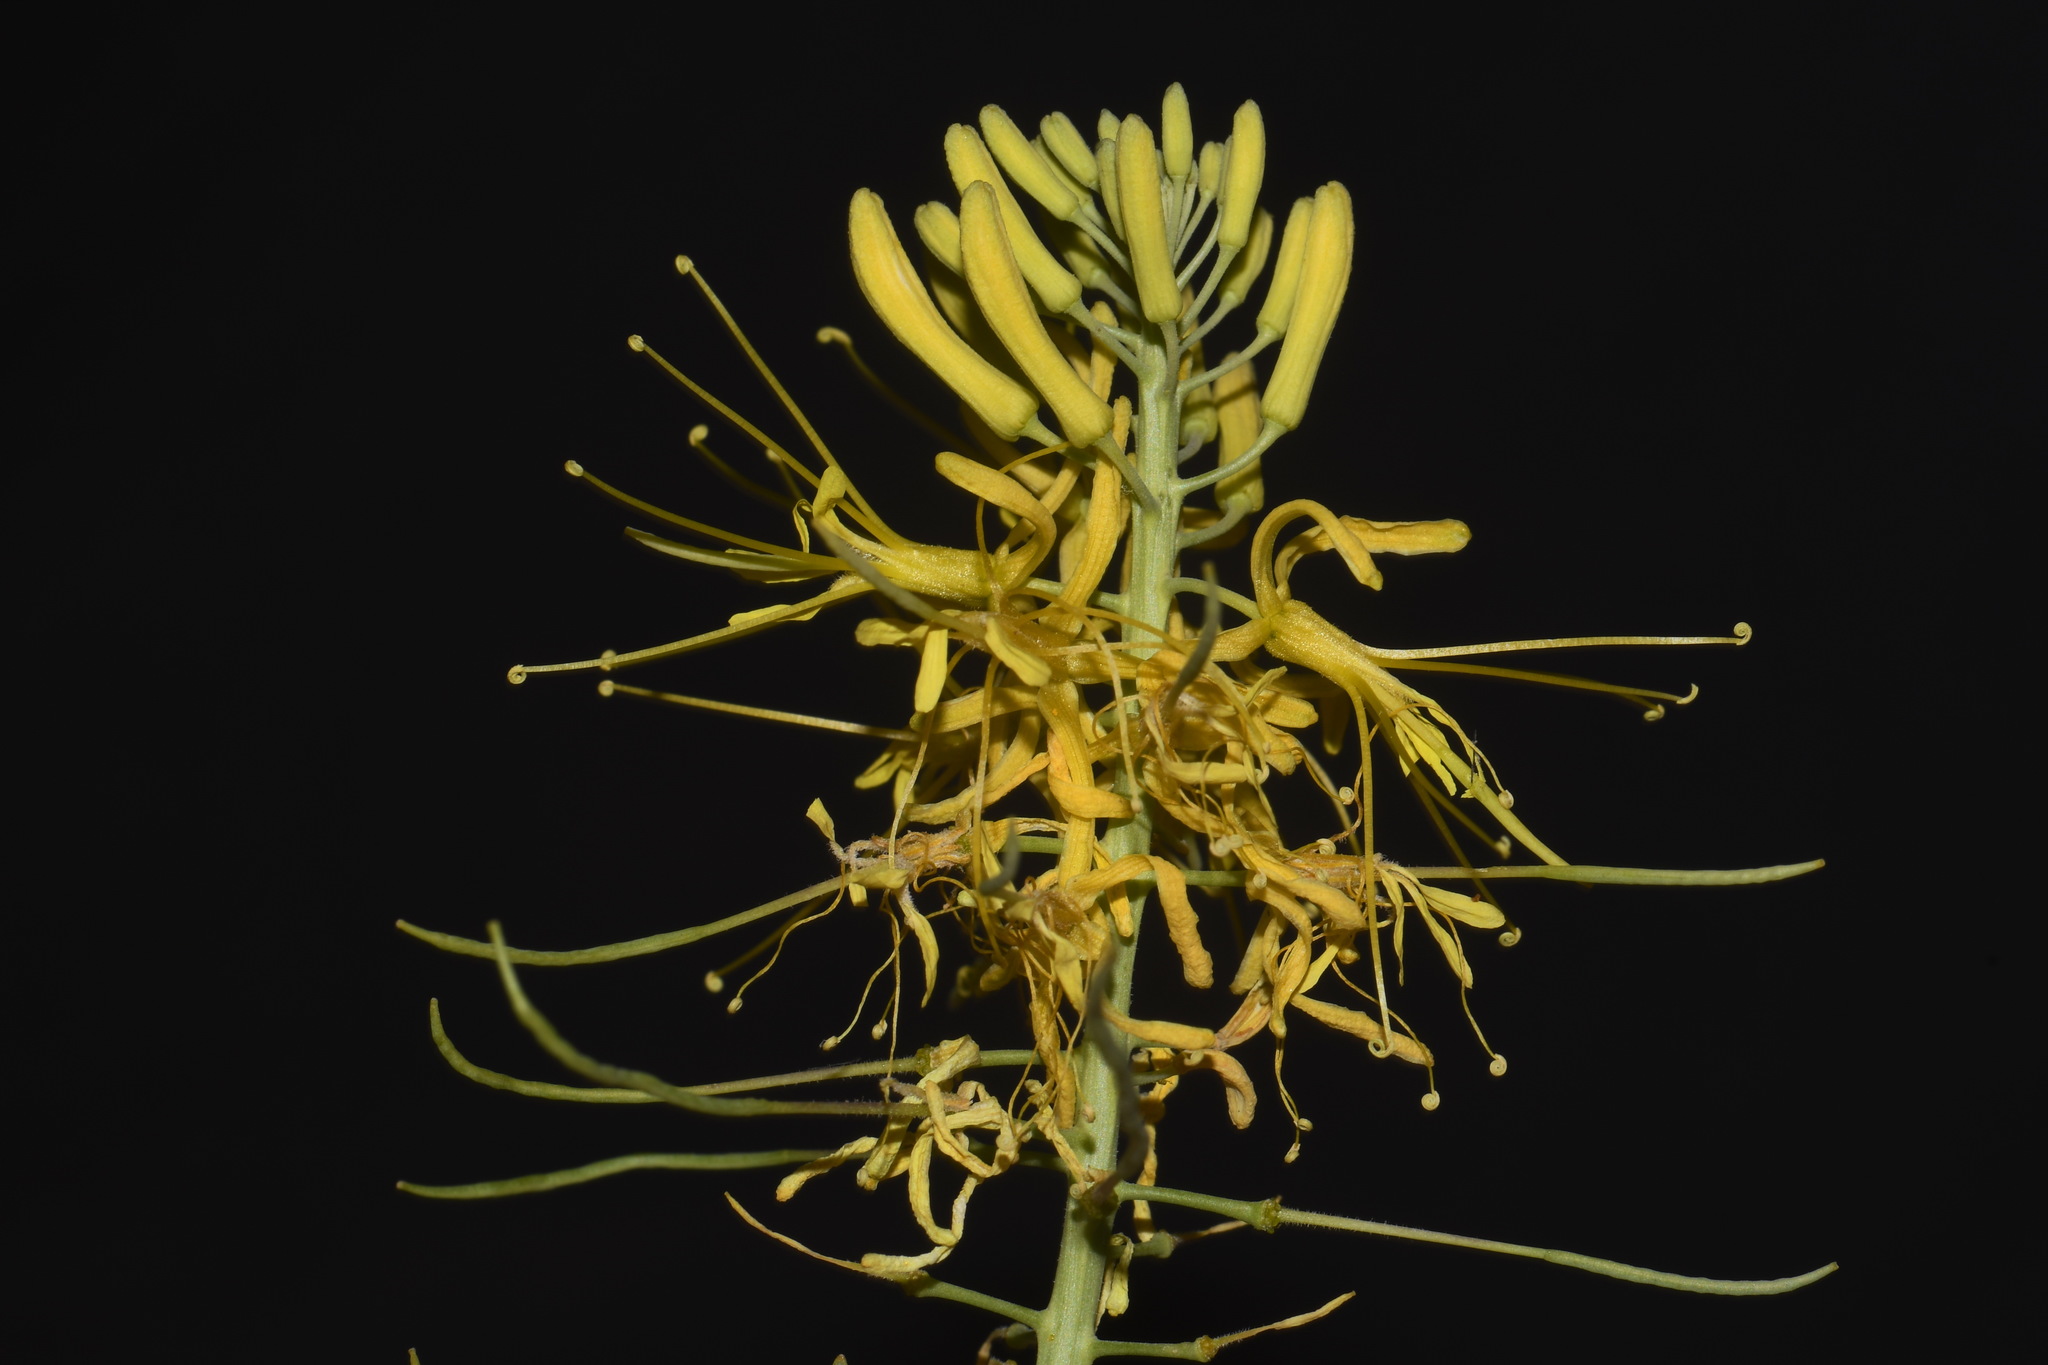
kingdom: Plantae
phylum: Tracheophyta
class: Magnoliopsida
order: Brassicales
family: Brassicaceae
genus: Stanleya
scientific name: Stanleya pinnata
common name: Prince's-plume
